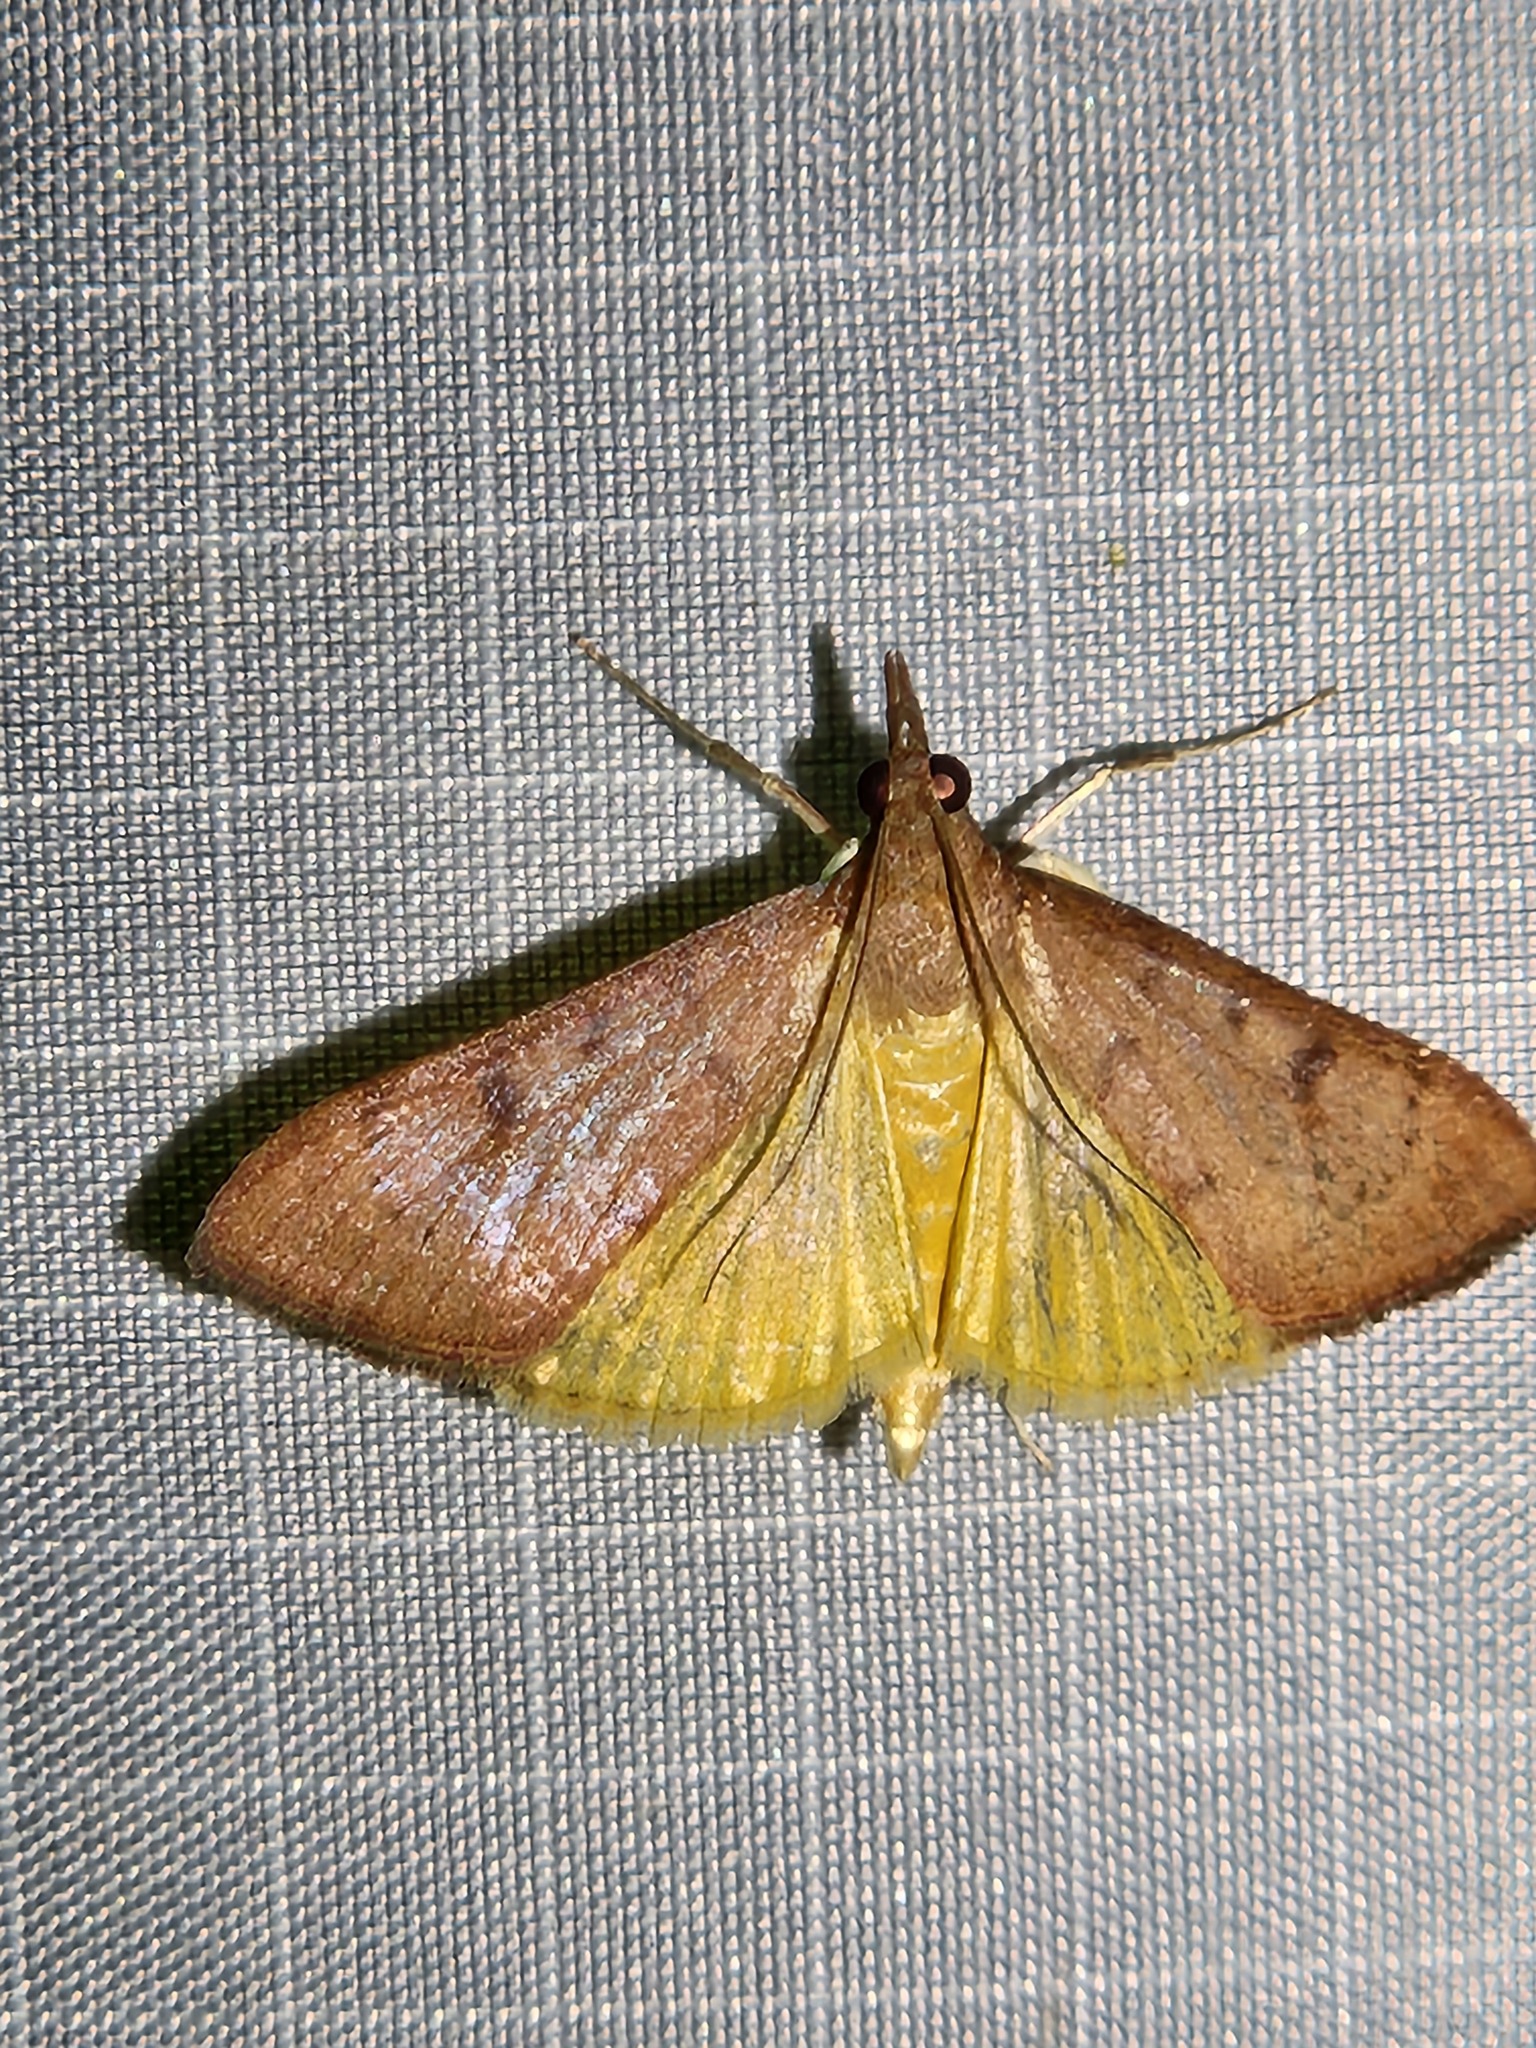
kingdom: Animalia
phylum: Arthropoda
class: Insecta
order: Lepidoptera
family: Crambidae
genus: Uresiphita
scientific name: Uresiphita reversalis
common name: Genista broom moth
